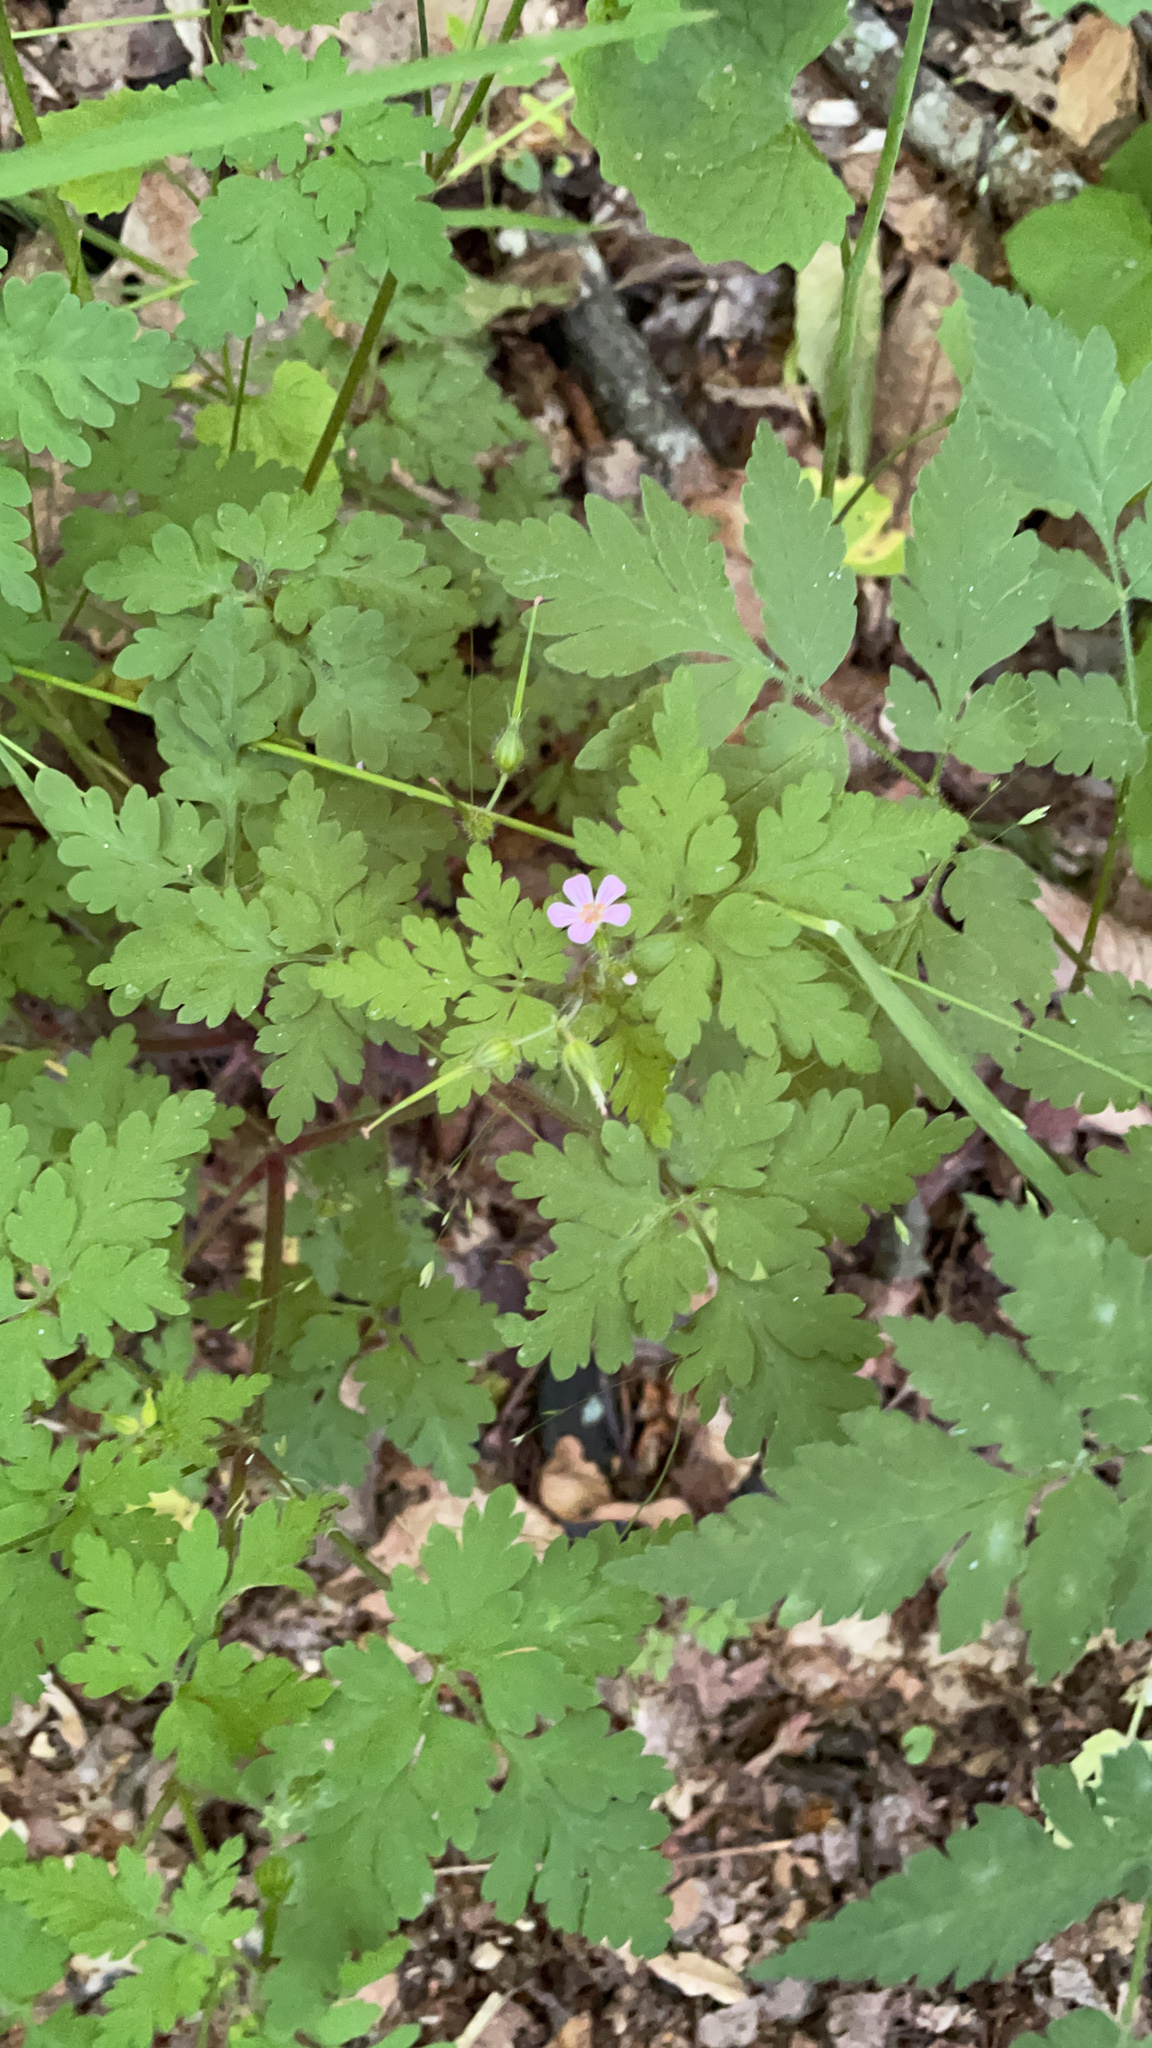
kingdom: Plantae
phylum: Tracheophyta
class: Magnoliopsida
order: Geraniales
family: Geraniaceae
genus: Geranium
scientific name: Geranium robertianum
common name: Herb-robert
